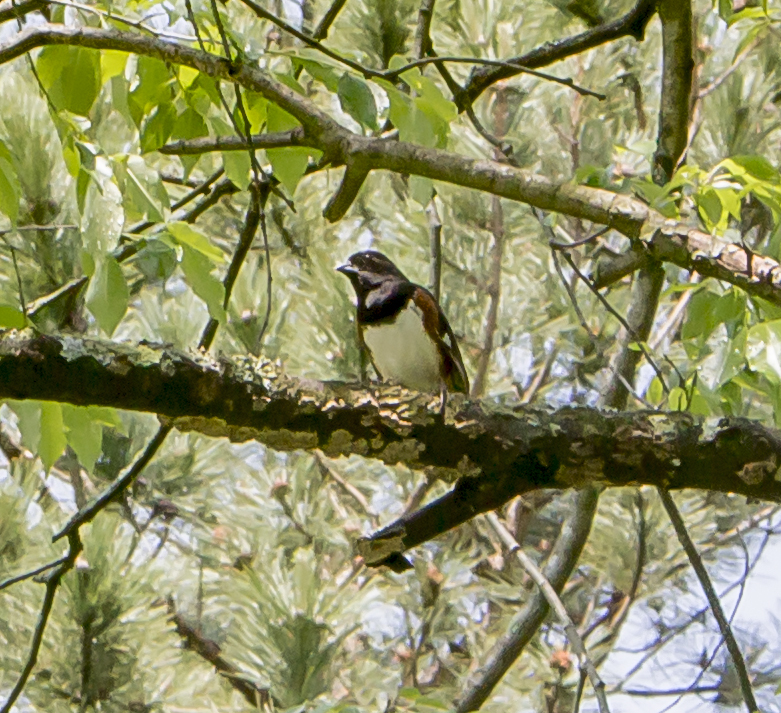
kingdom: Animalia
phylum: Chordata
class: Aves
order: Passeriformes
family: Passerellidae
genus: Pipilo
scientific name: Pipilo erythrophthalmus
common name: Eastern towhee
